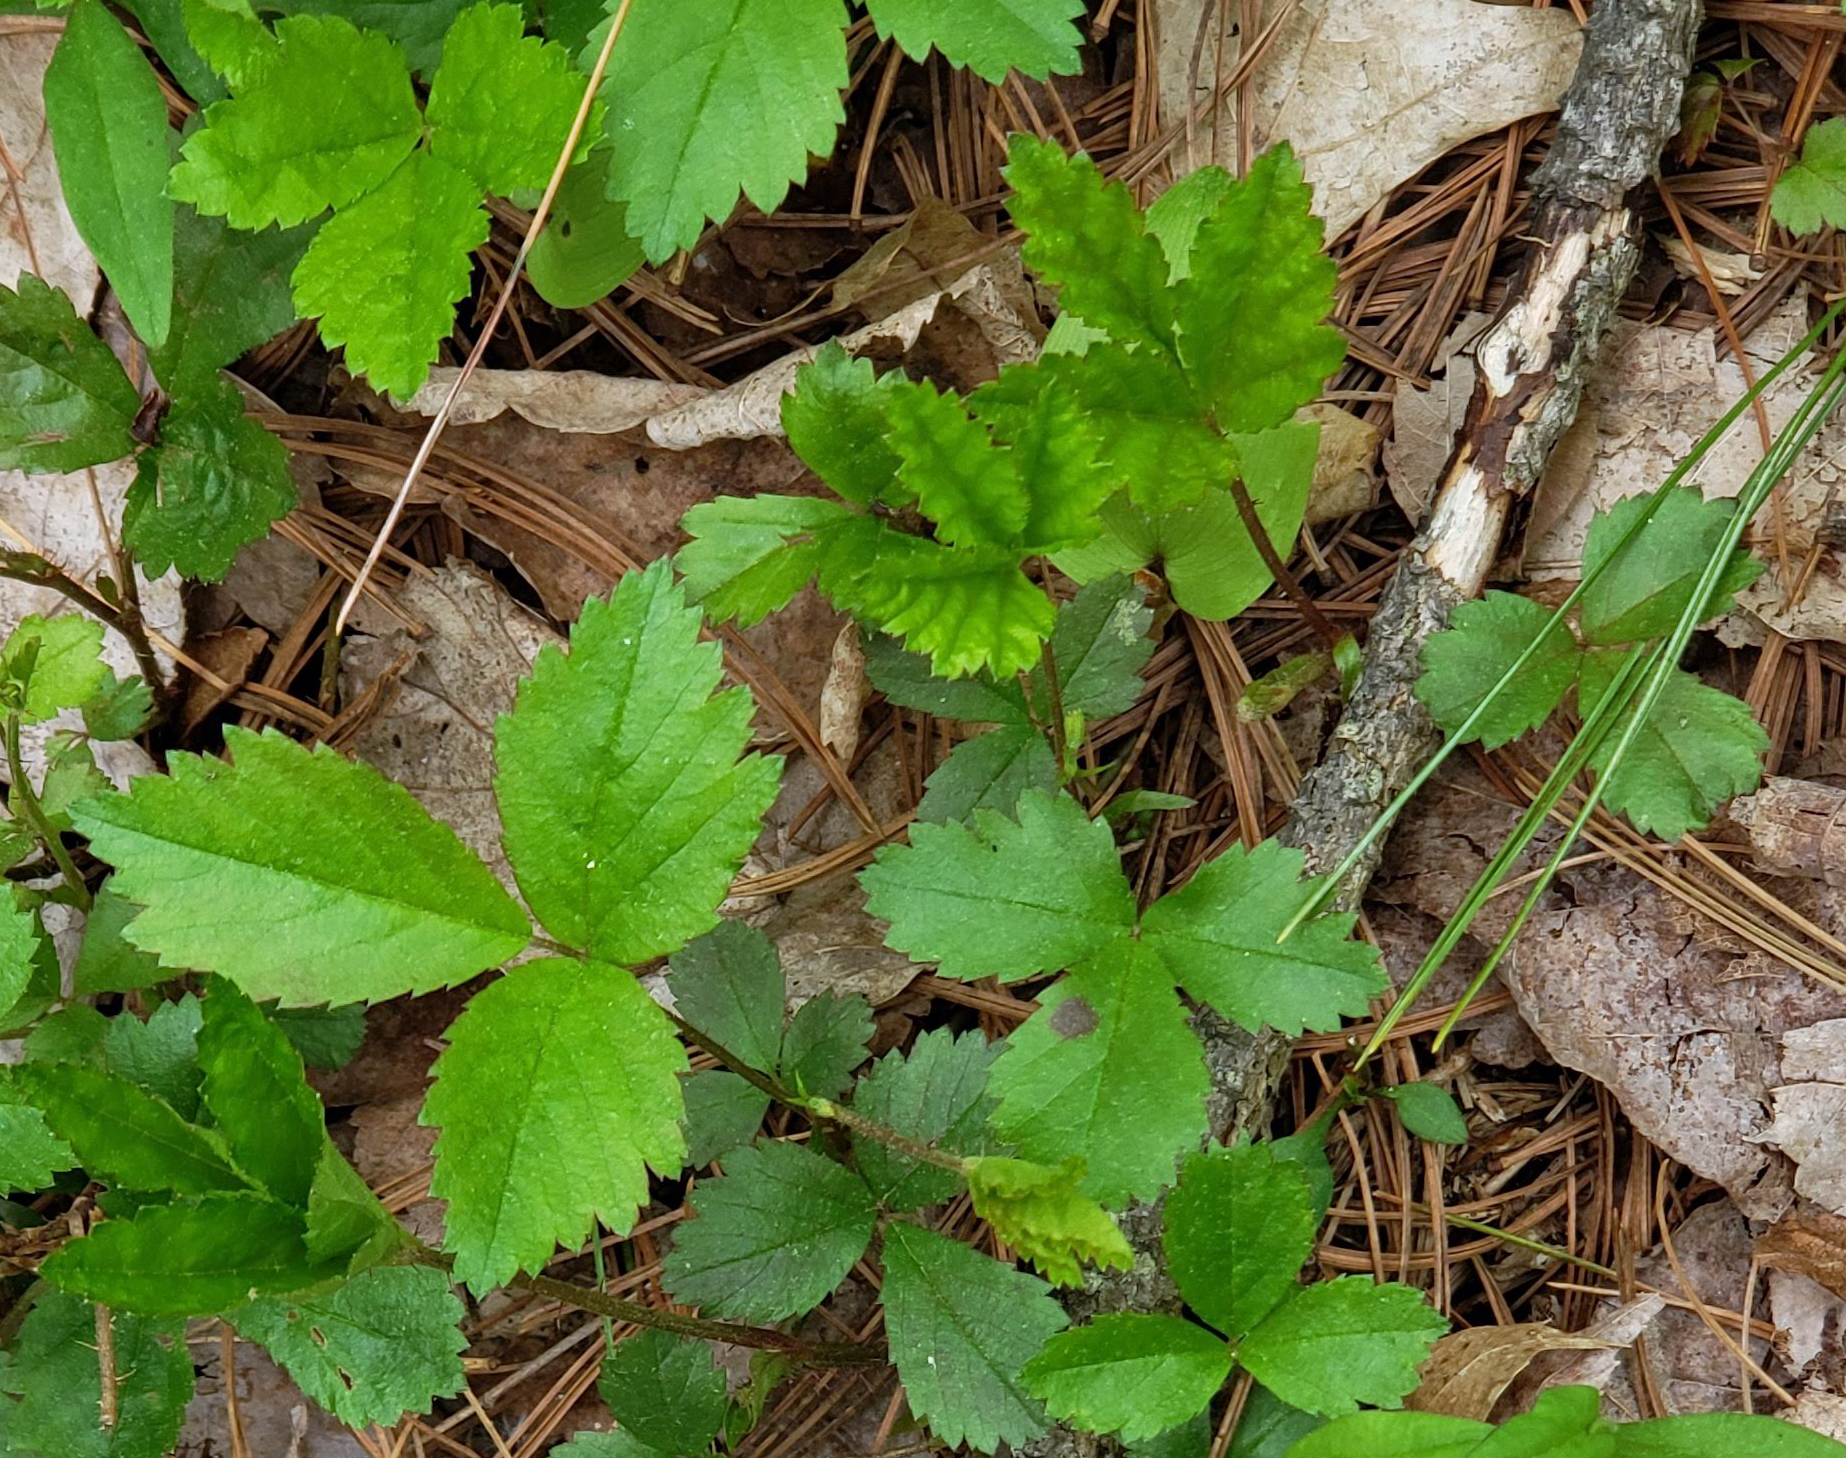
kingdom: Plantae
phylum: Tracheophyta
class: Magnoliopsida
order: Rosales
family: Rosaceae
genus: Rubus
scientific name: Rubus hispidus
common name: Running blackberry
